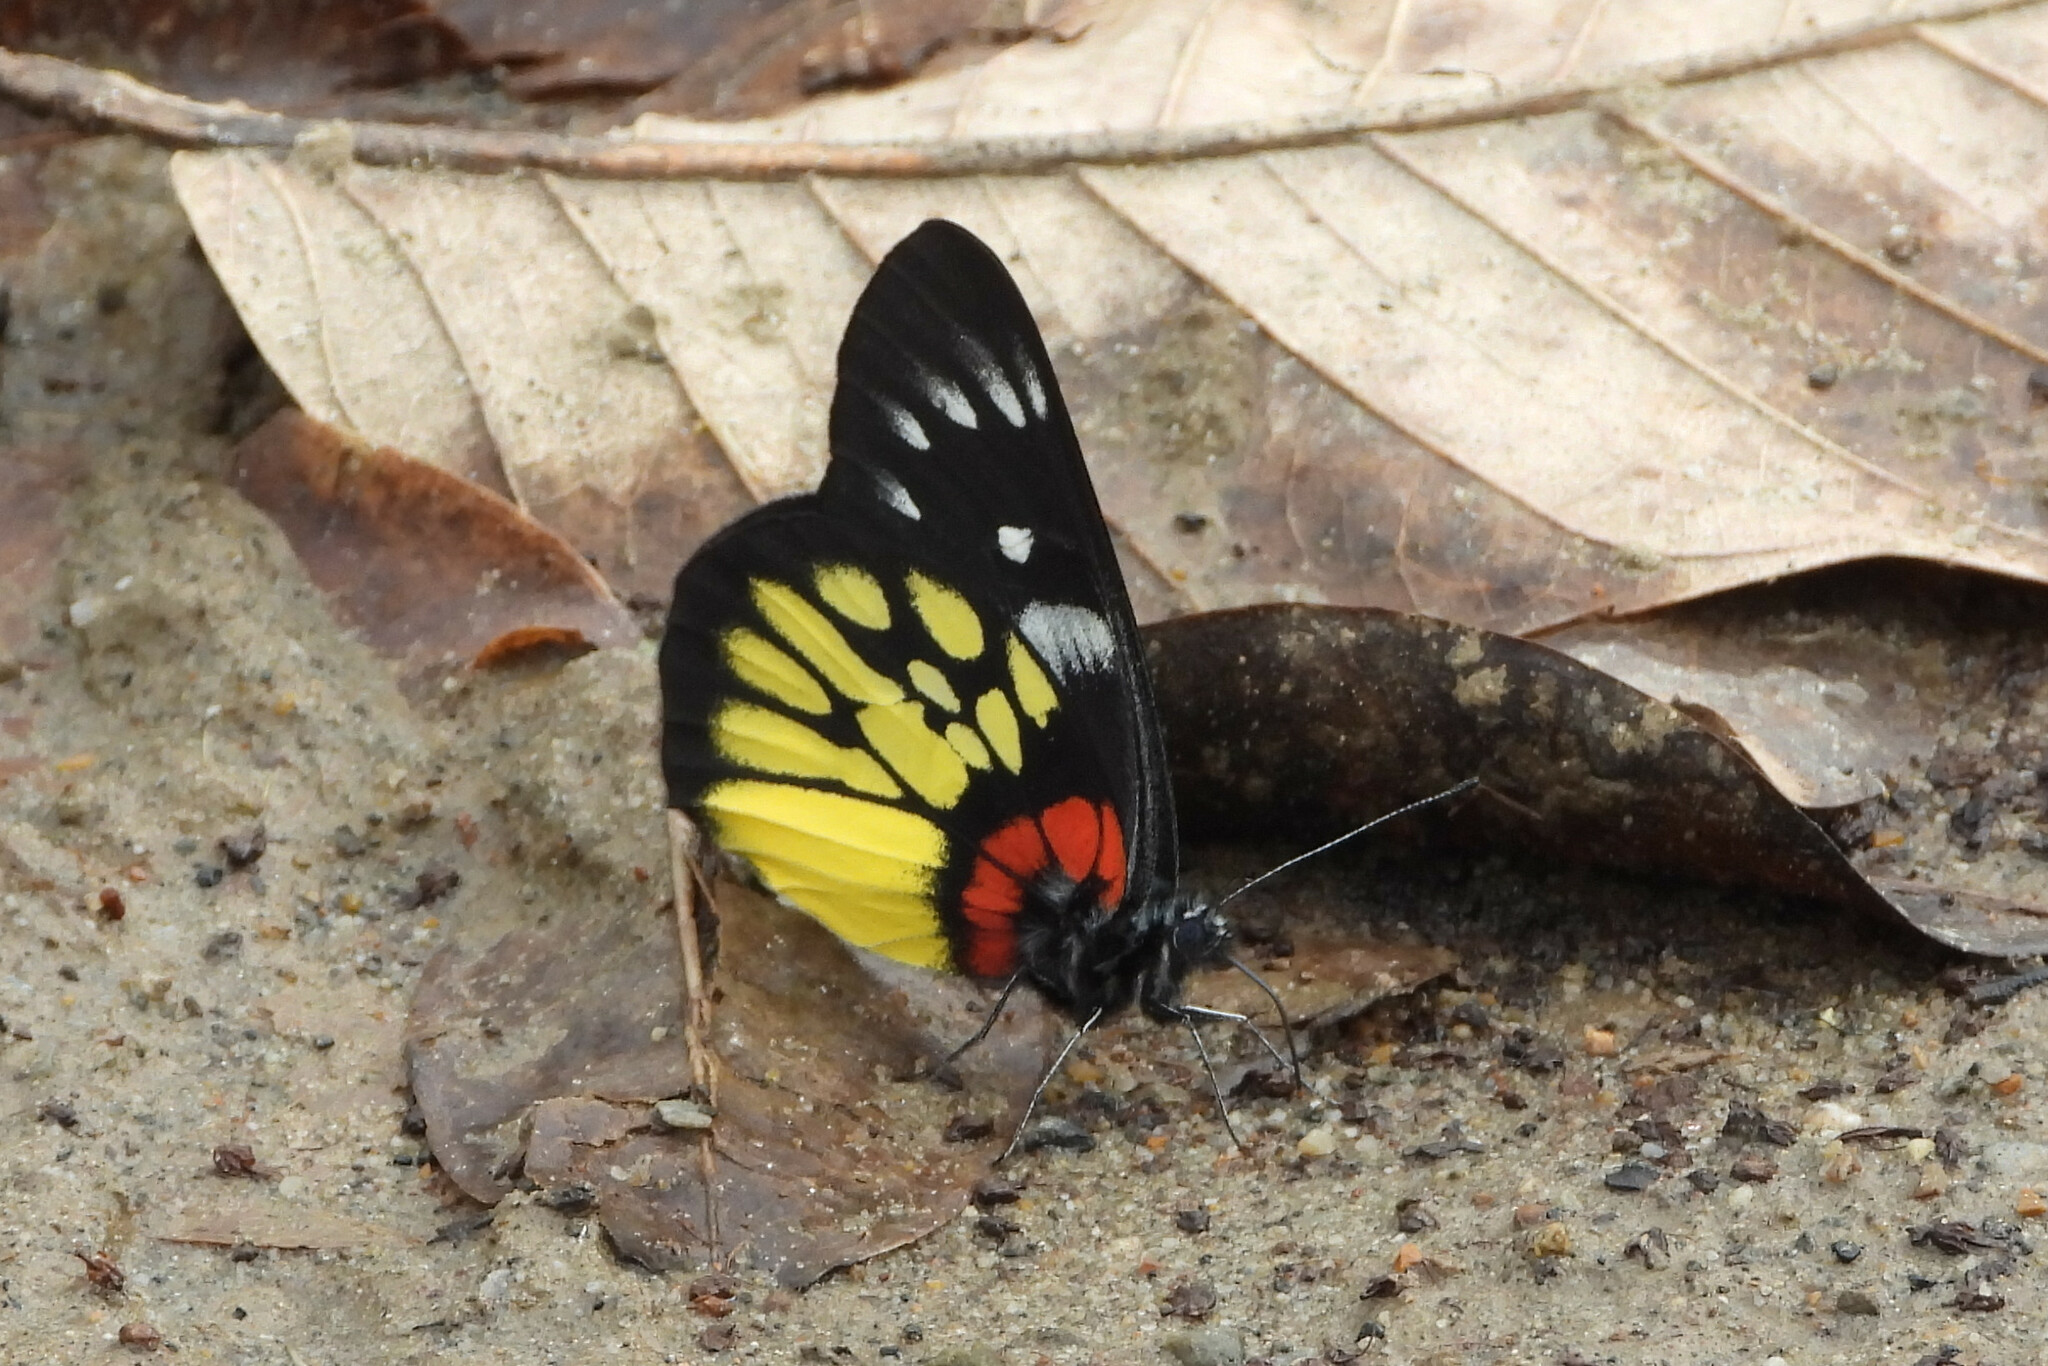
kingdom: Animalia
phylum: Arthropoda
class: Insecta
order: Lepidoptera
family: Pieridae
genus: Delias
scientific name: Delias pasithoe
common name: Red-base jezebel
